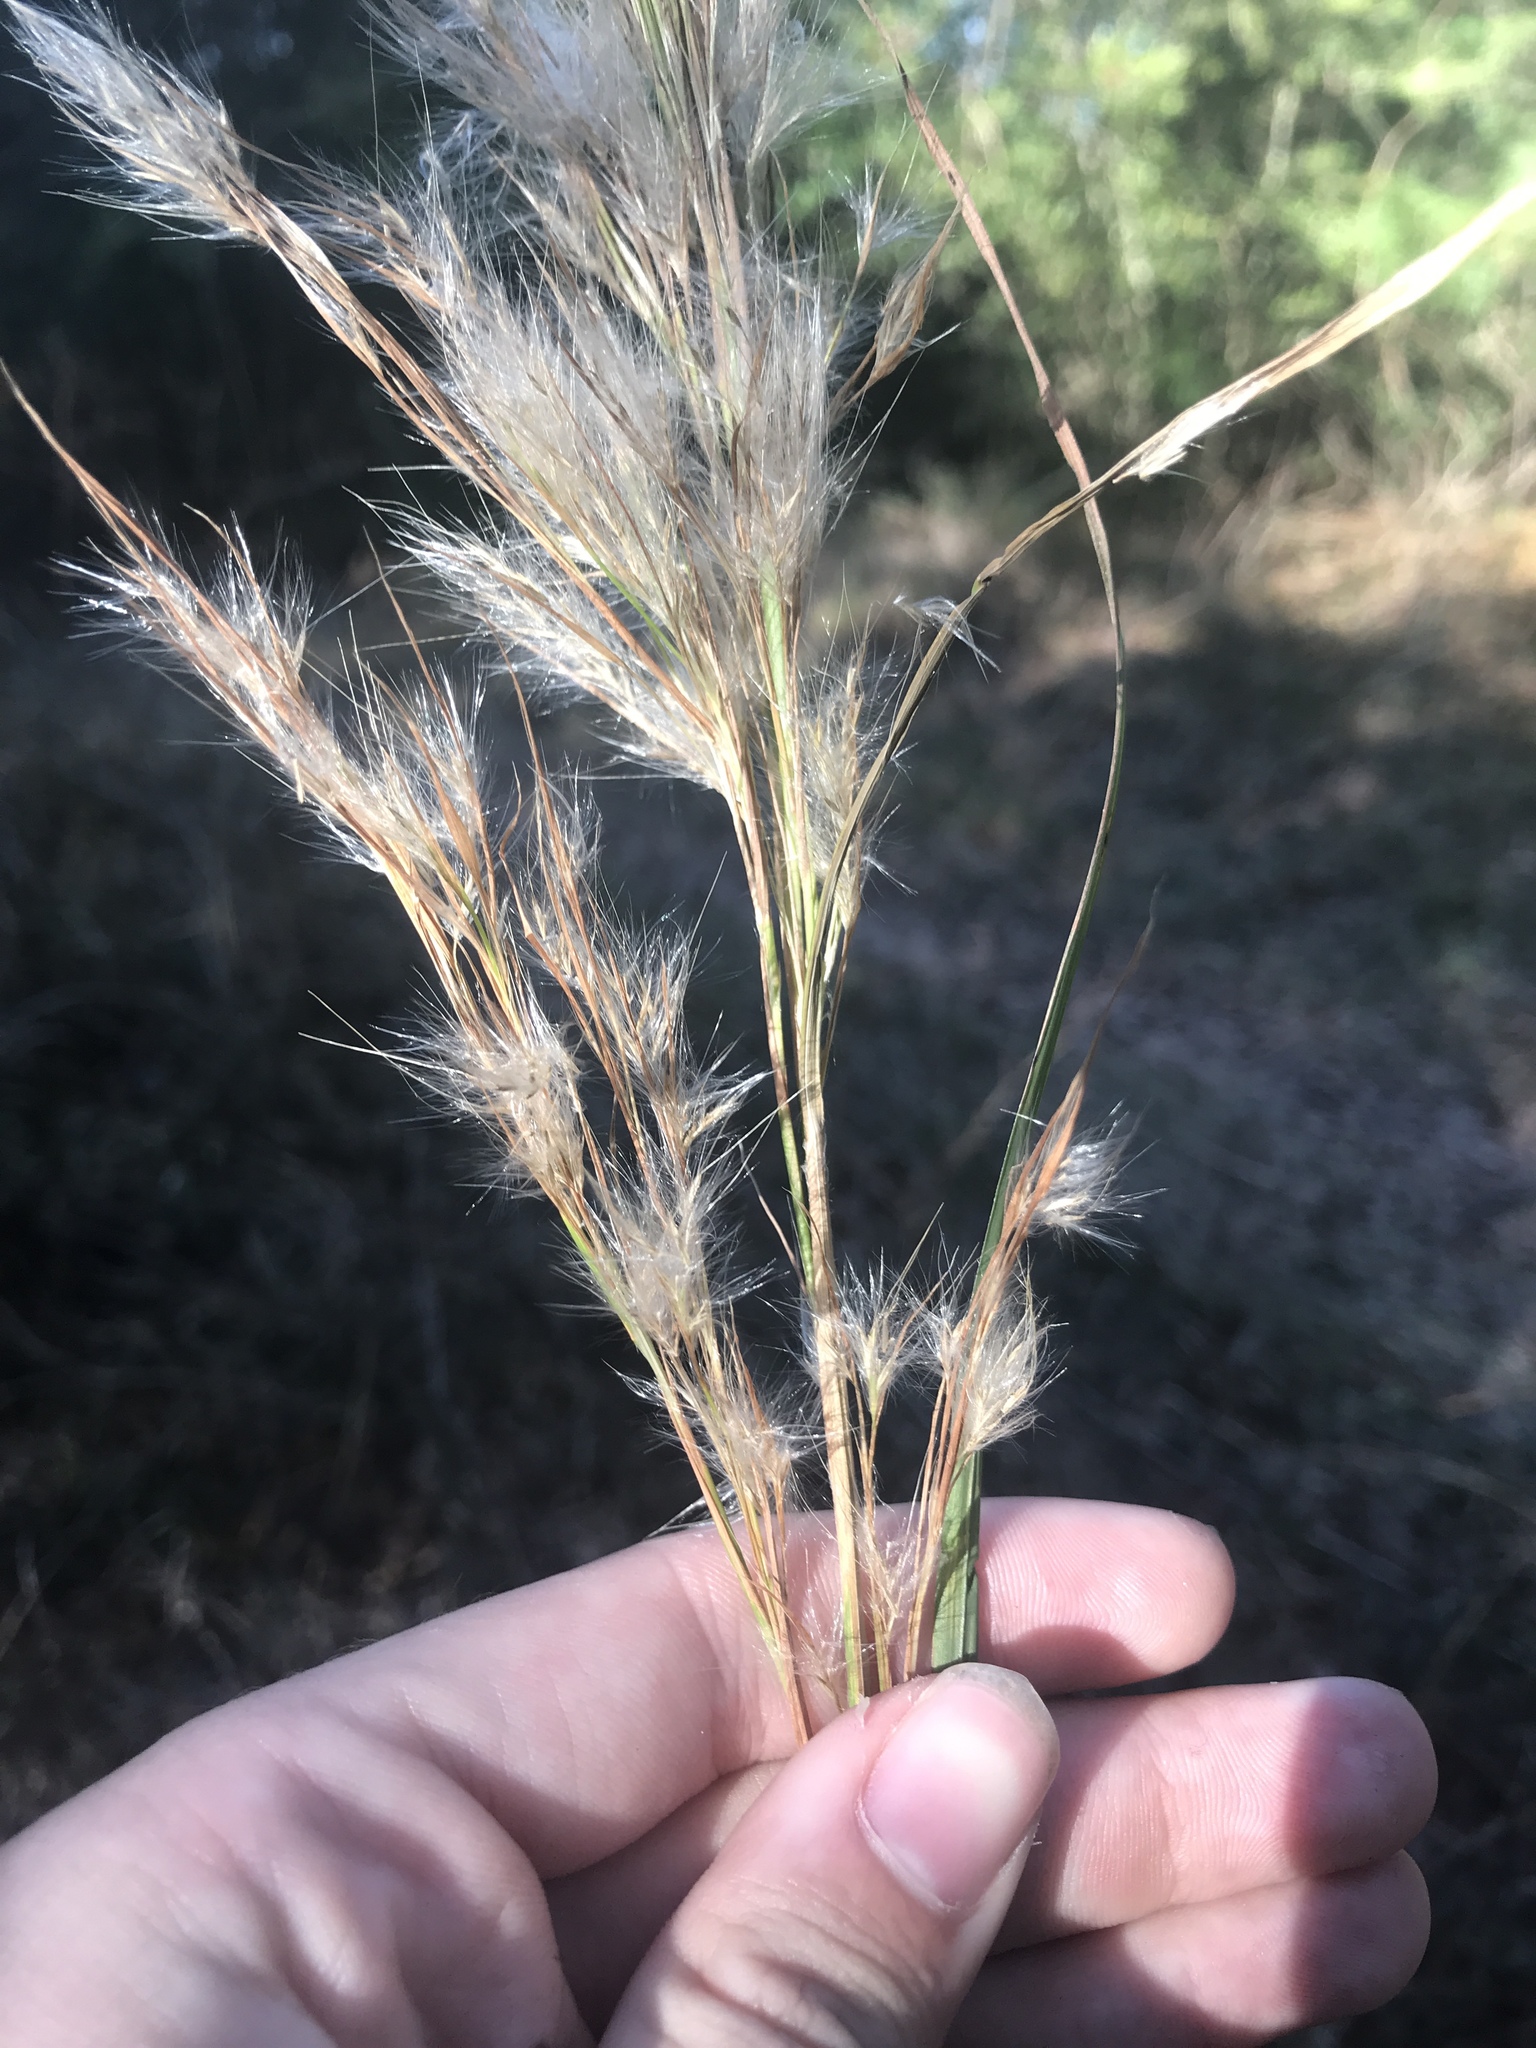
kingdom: Plantae
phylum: Tracheophyta
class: Liliopsida
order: Poales
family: Poaceae
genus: Andropogon
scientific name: Andropogon tenuispatheus
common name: Bushy bluestem
